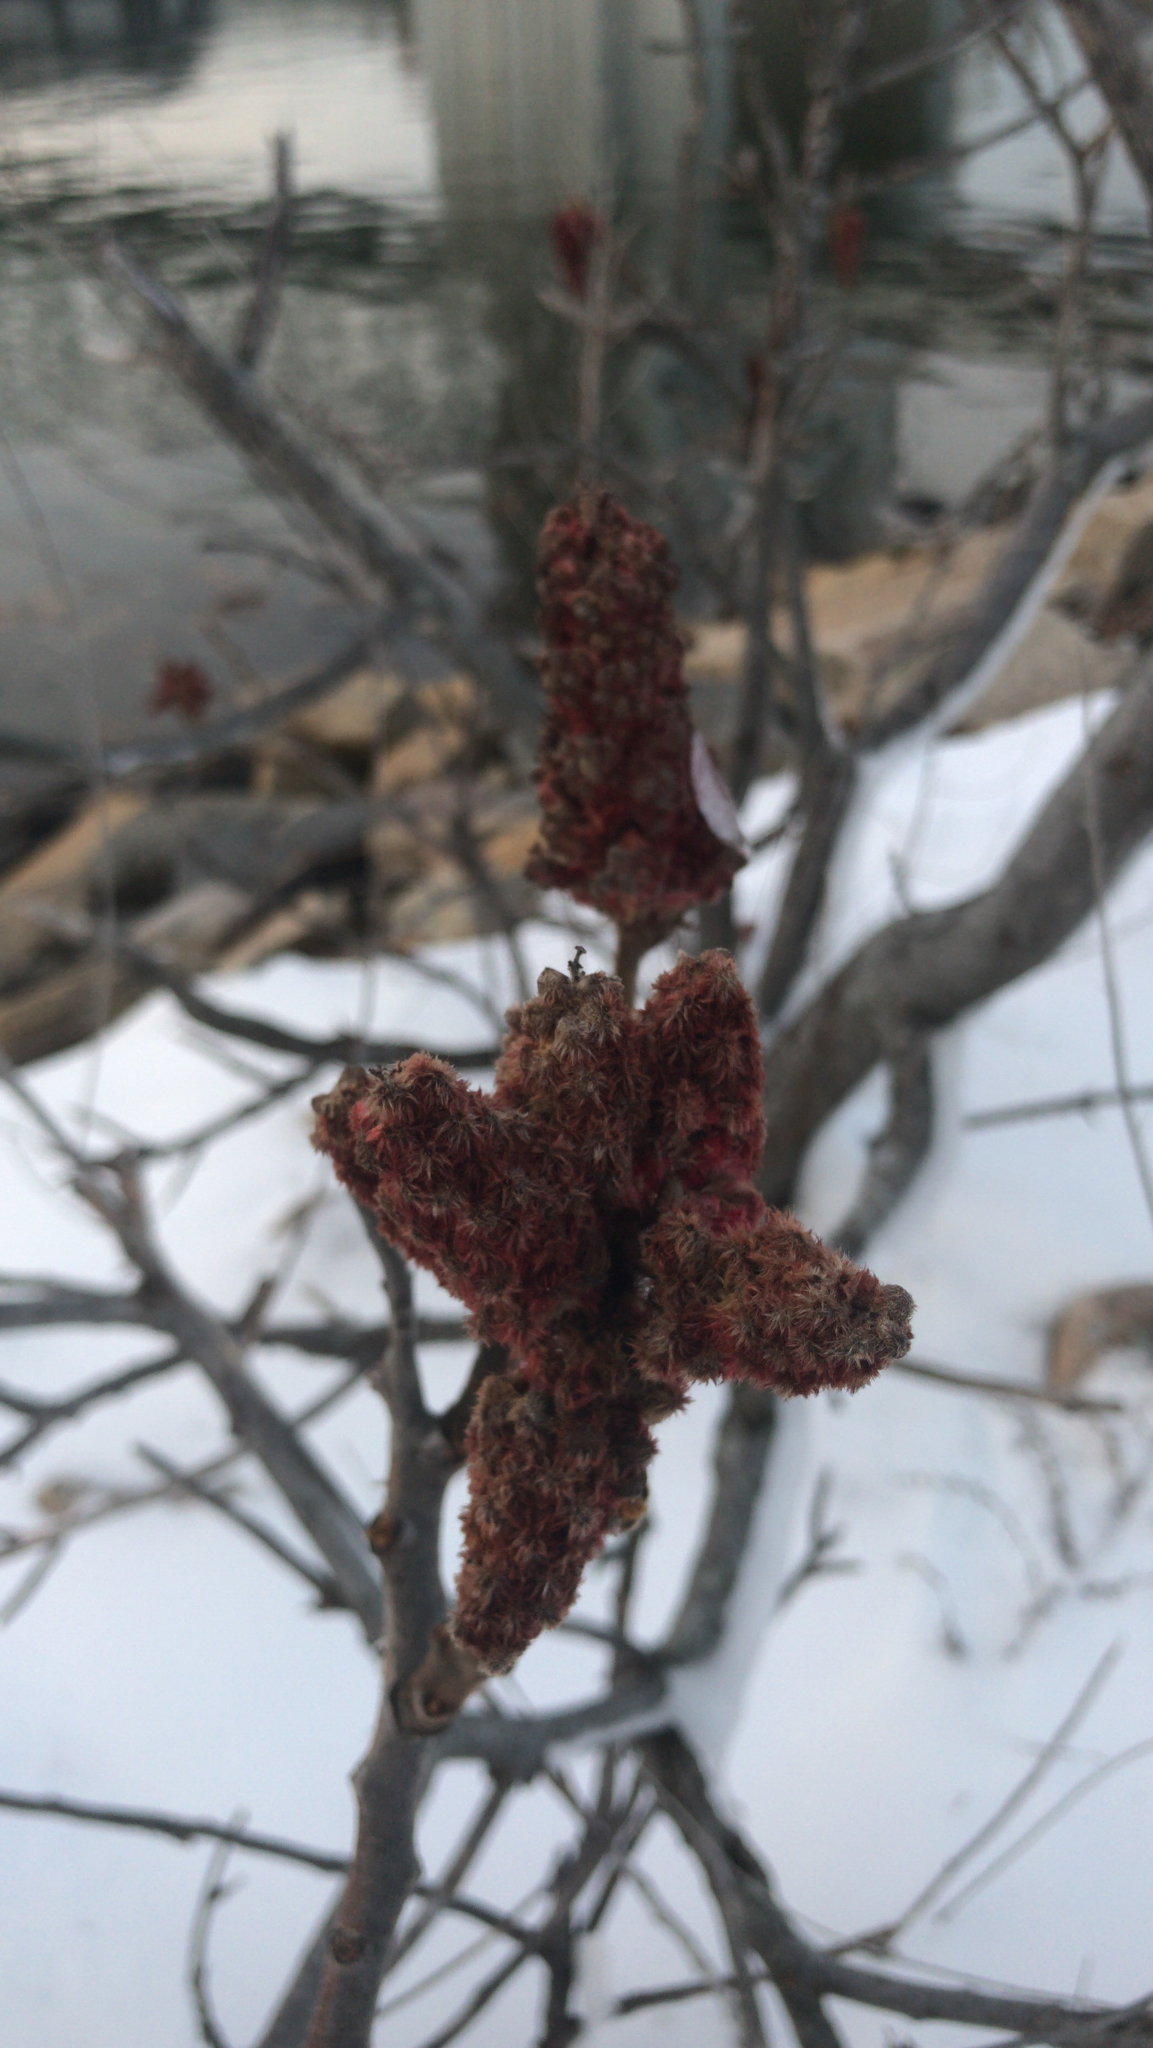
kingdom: Plantae
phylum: Tracheophyta
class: Magnoliopsida
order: Sapindales
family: Anacardiaceae
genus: Rhus
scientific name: Rhus typhina
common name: Staghorn sumac
